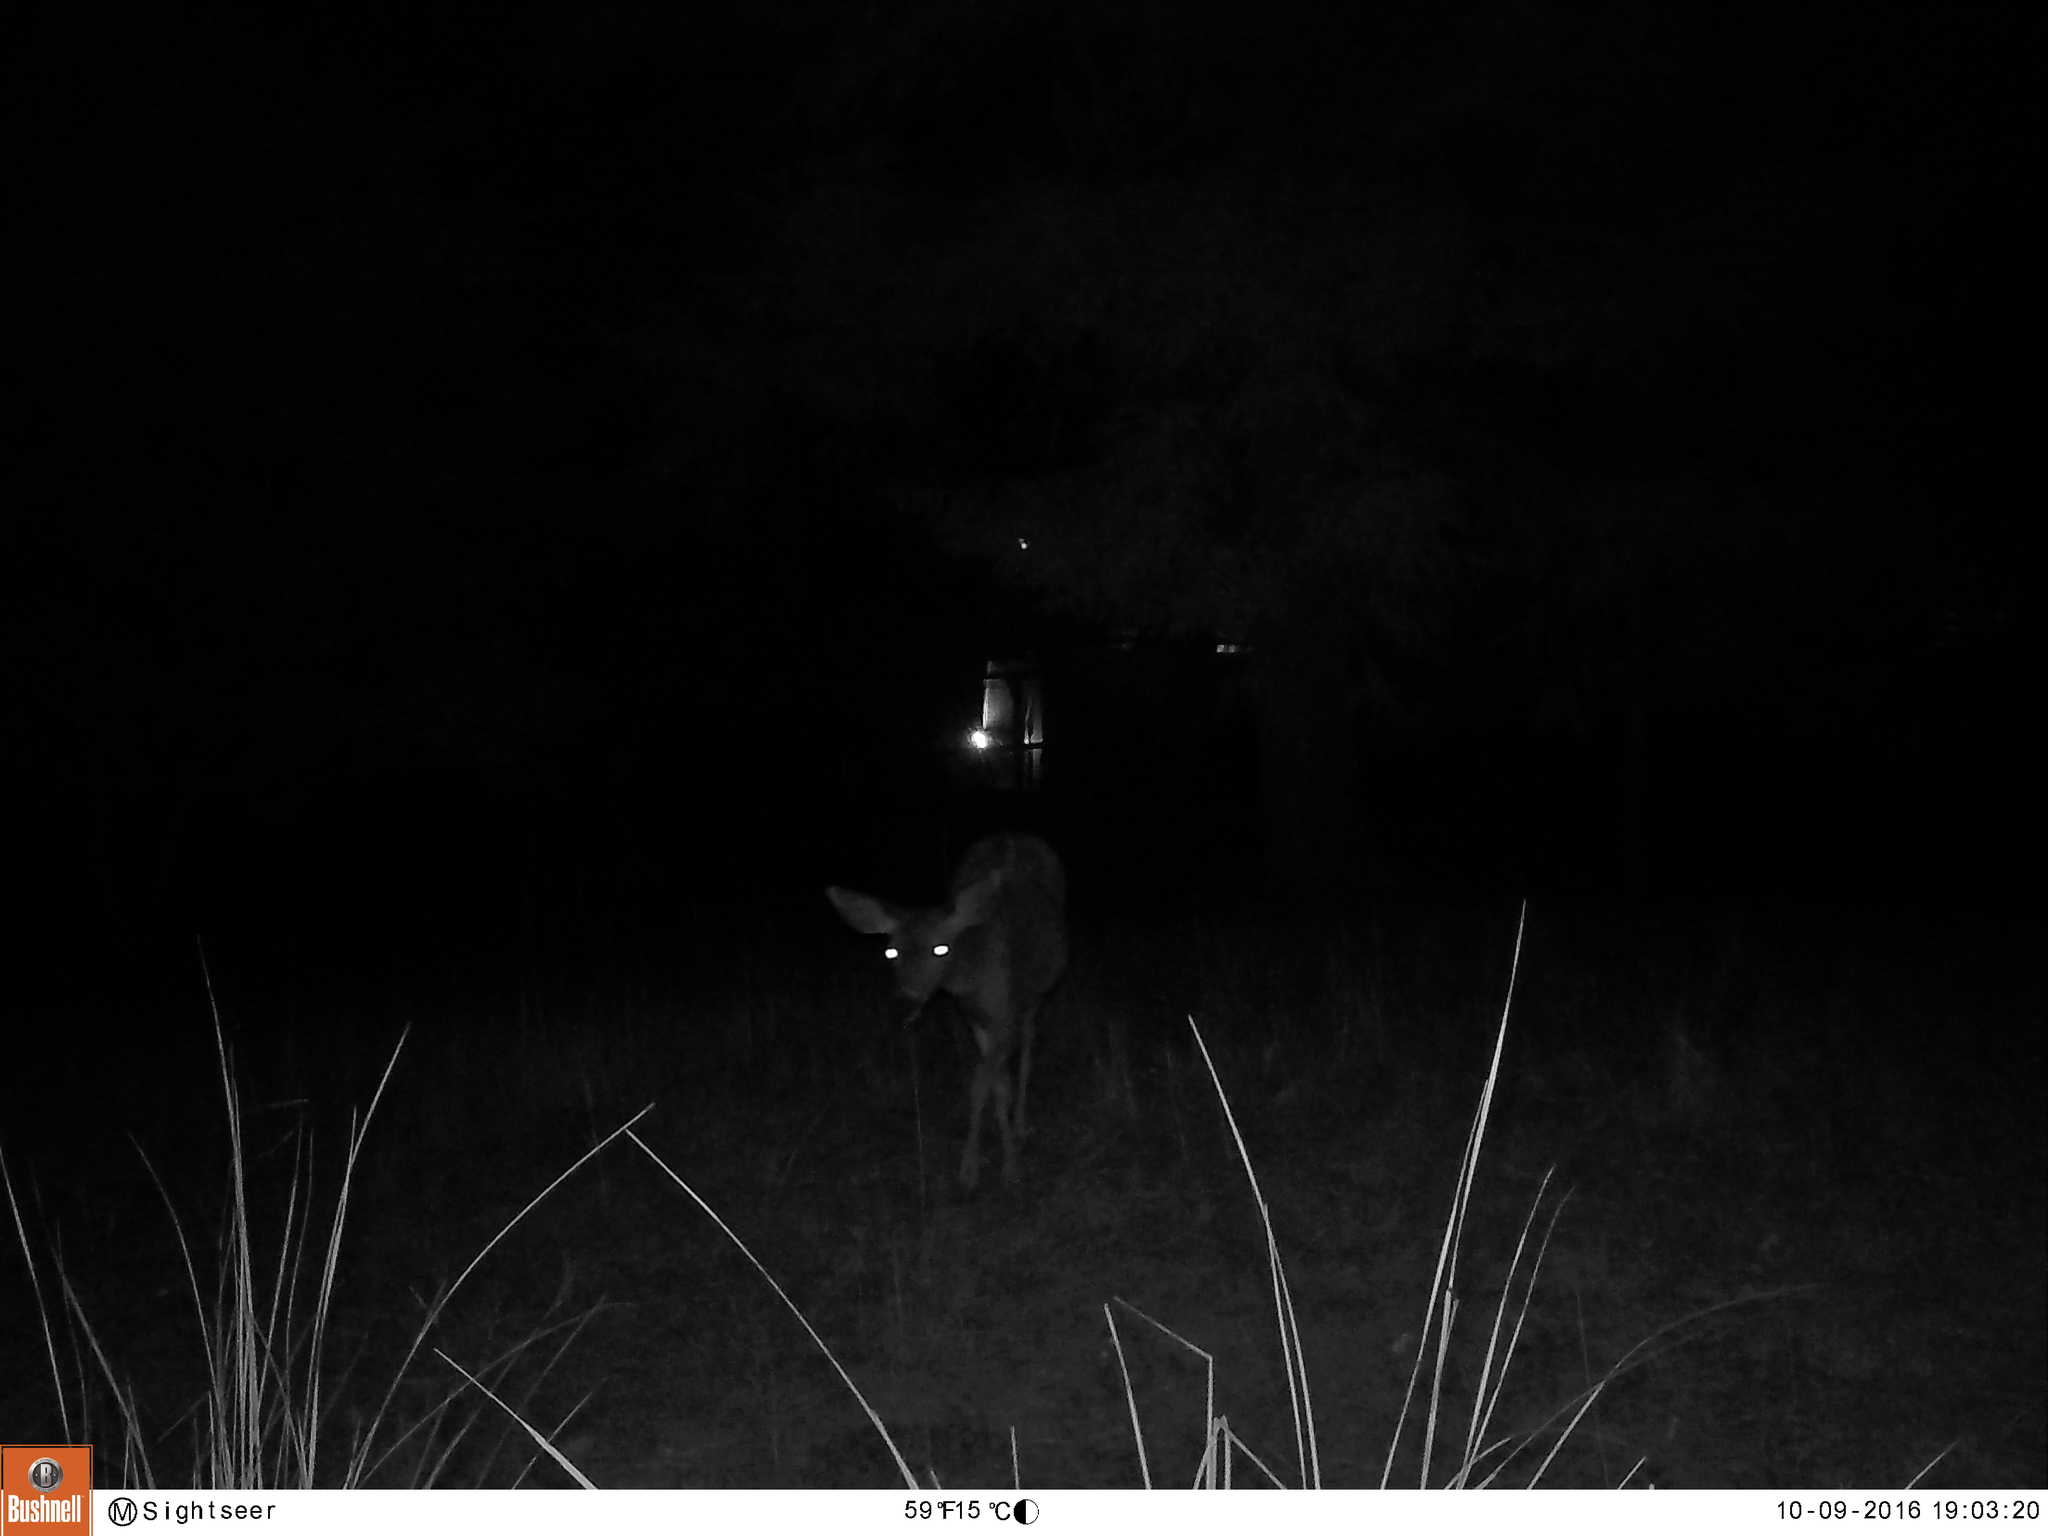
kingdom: Animalia
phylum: Chordata
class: Mammalia
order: Artiodactyla
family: Cervidae
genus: Odocoileus
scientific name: Odocoileus hemionus
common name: Mule deer
